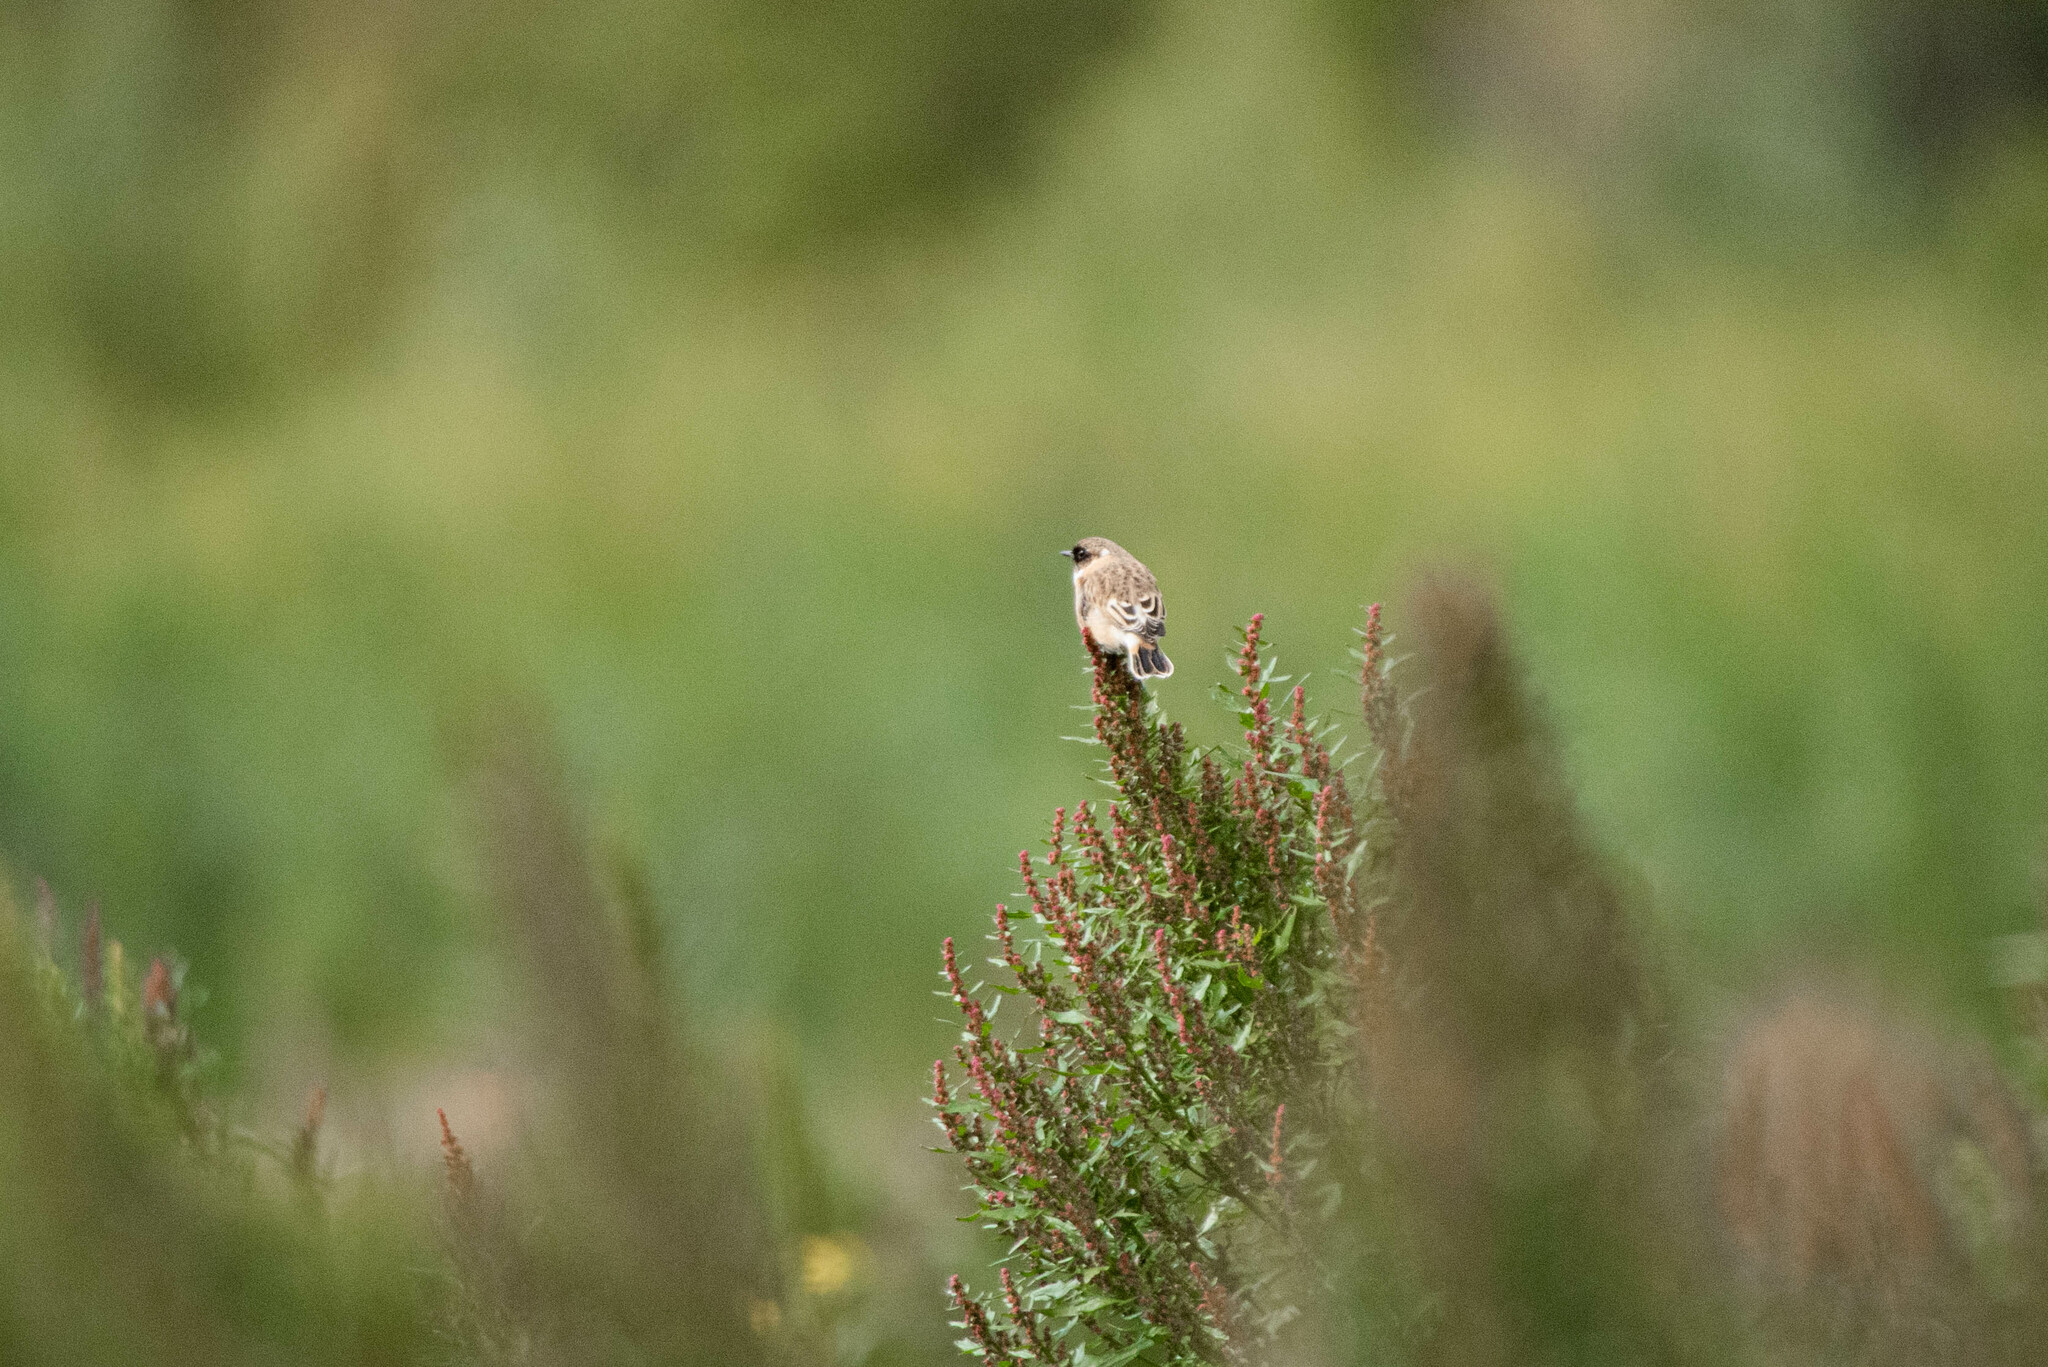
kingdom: Animalia
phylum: Chordata
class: Aves
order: Passeriformes
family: Muscicapidae
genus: Saxicola
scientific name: Saxicola maurus
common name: Siberian stonechat
